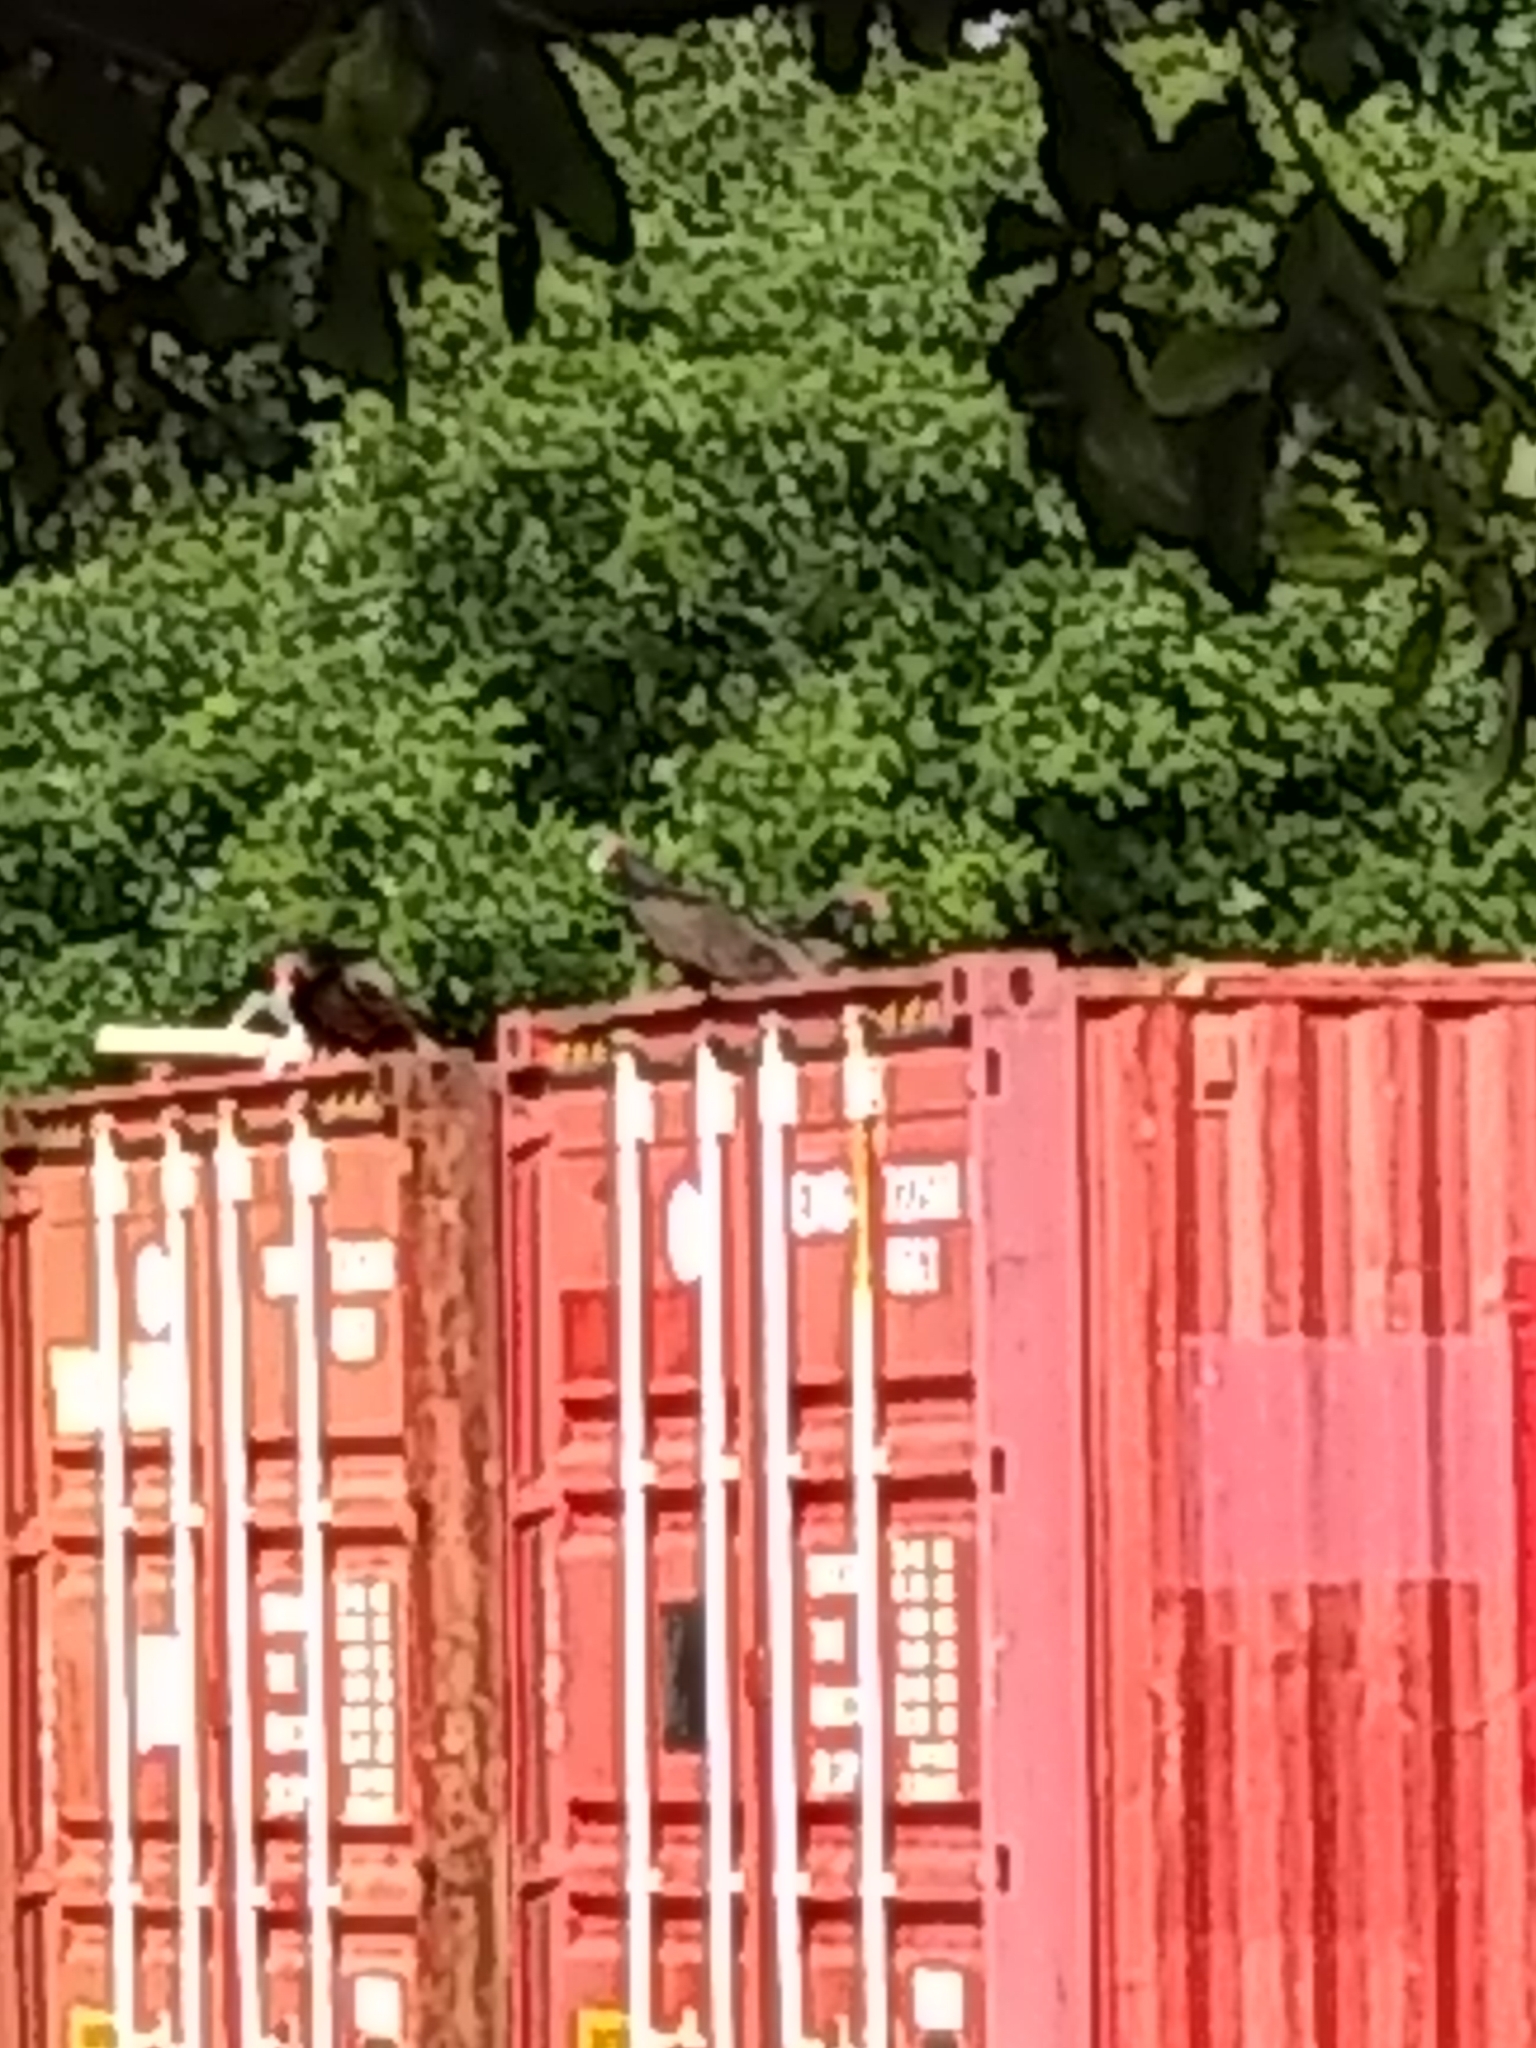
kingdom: Animalia
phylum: Chordata
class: Aves
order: Accipitriformes
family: Cathartidae
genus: Cathartes
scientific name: Cathartes aura
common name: Turkey vulture
